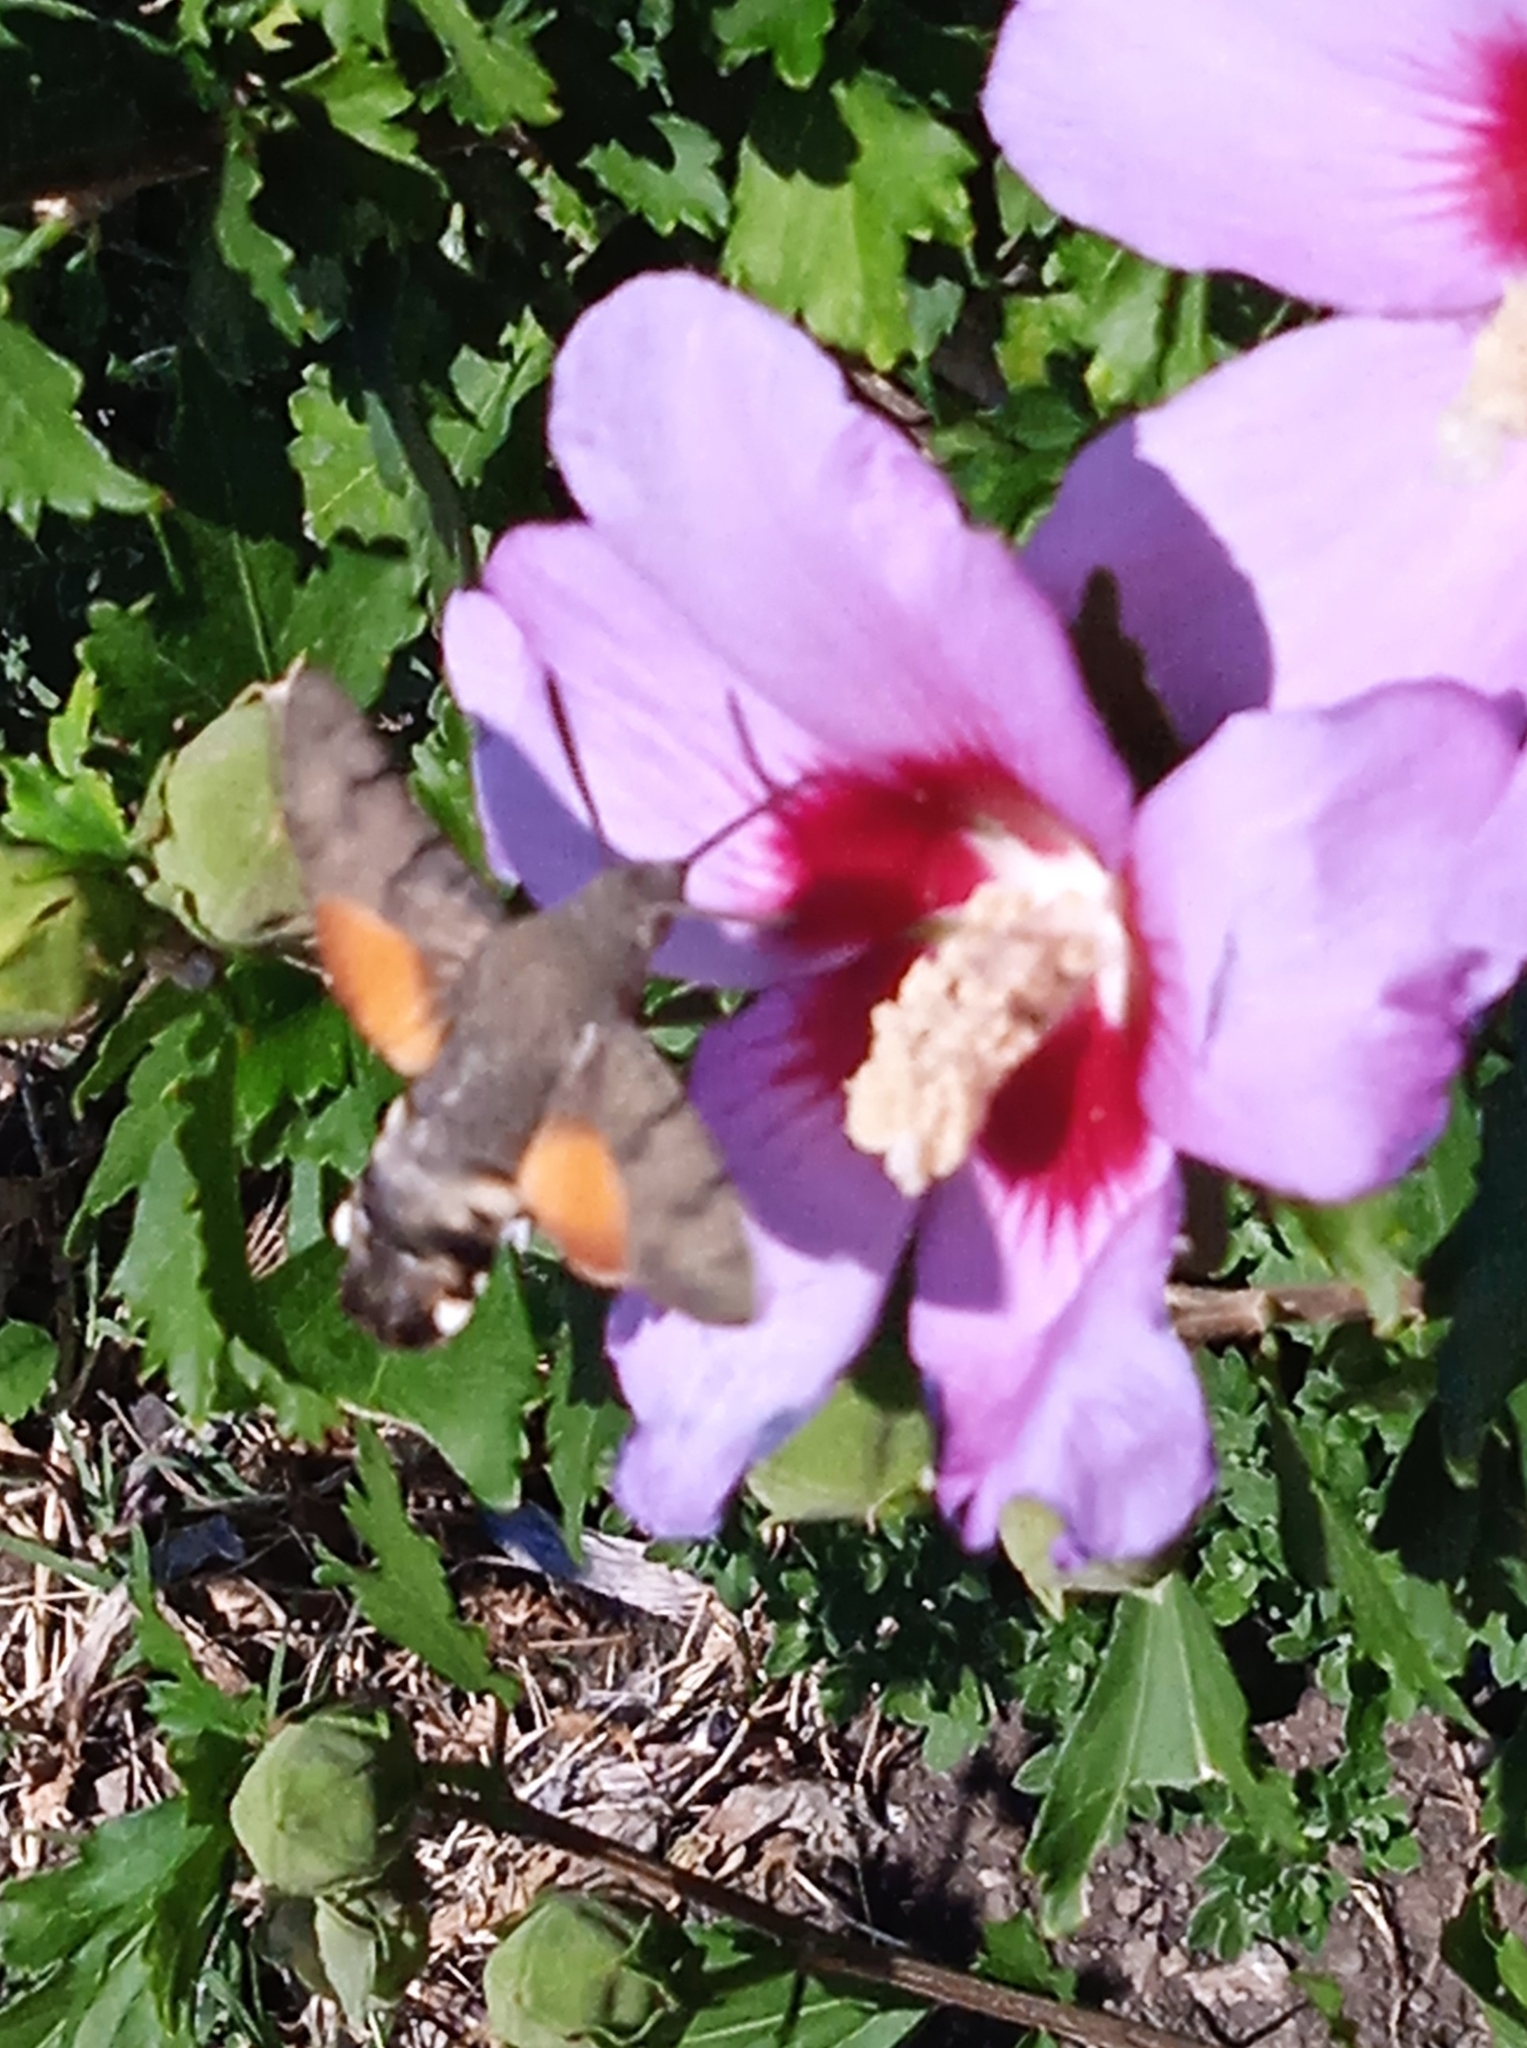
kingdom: Animalia
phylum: Arthropoda
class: Insecta
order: Lepidoptera
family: Sphingidae
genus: Macroglossum
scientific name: Macroglossum stellatarum
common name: Humming-bird hawk-moth
